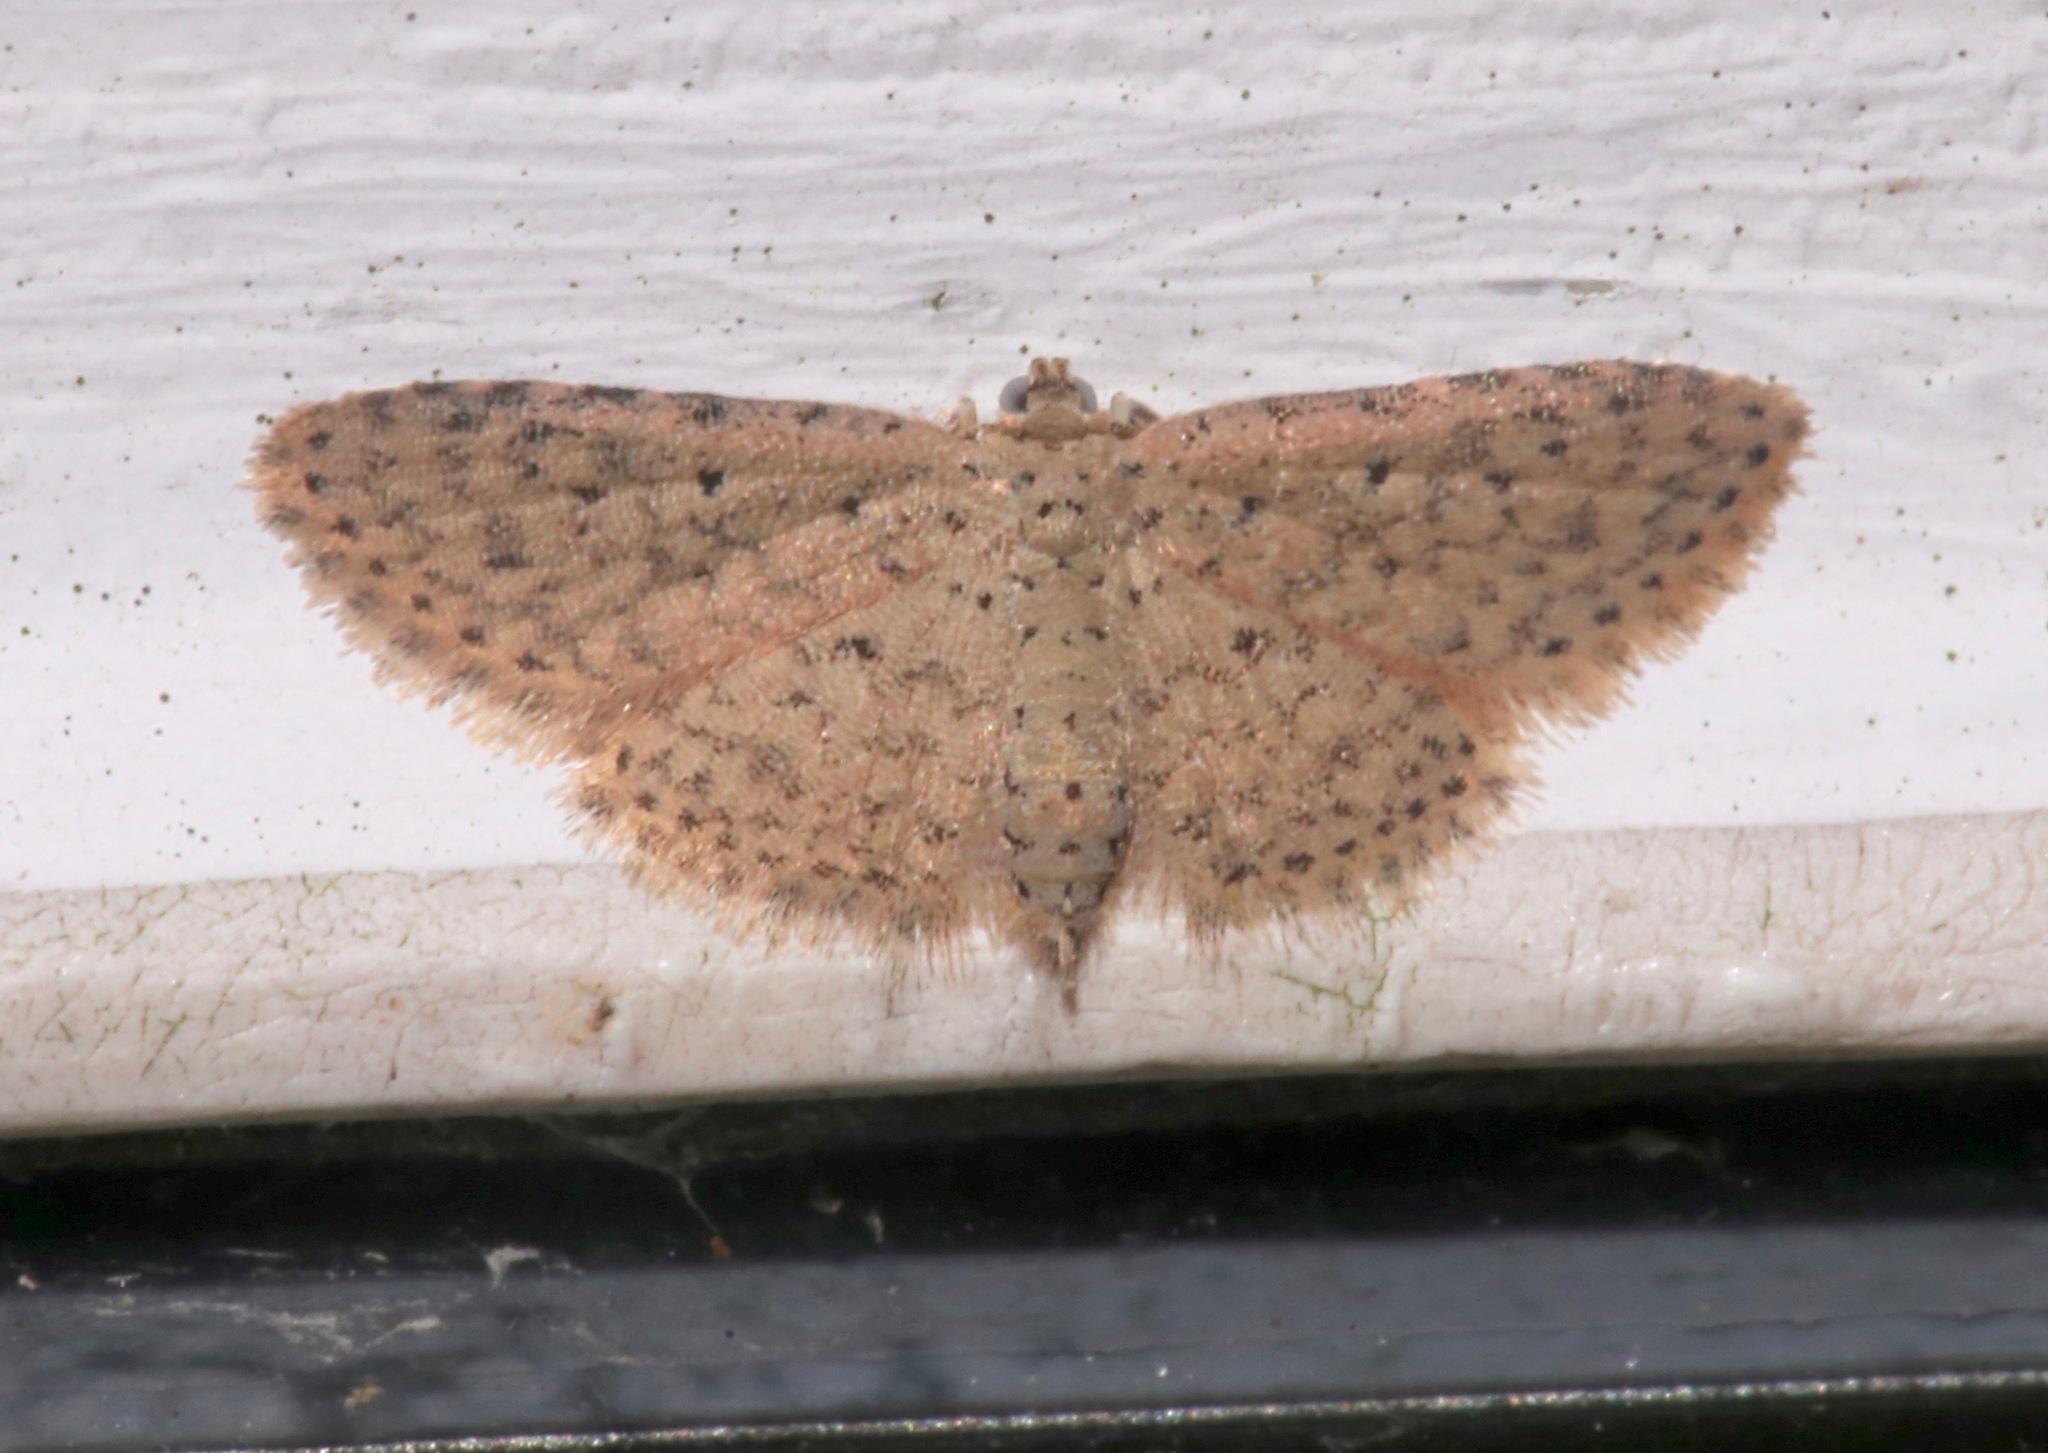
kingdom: Animalia
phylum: Arthropoda
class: Insecta
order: Lepidoptera
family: Erebidae
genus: Sigela
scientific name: Sigela lynx
